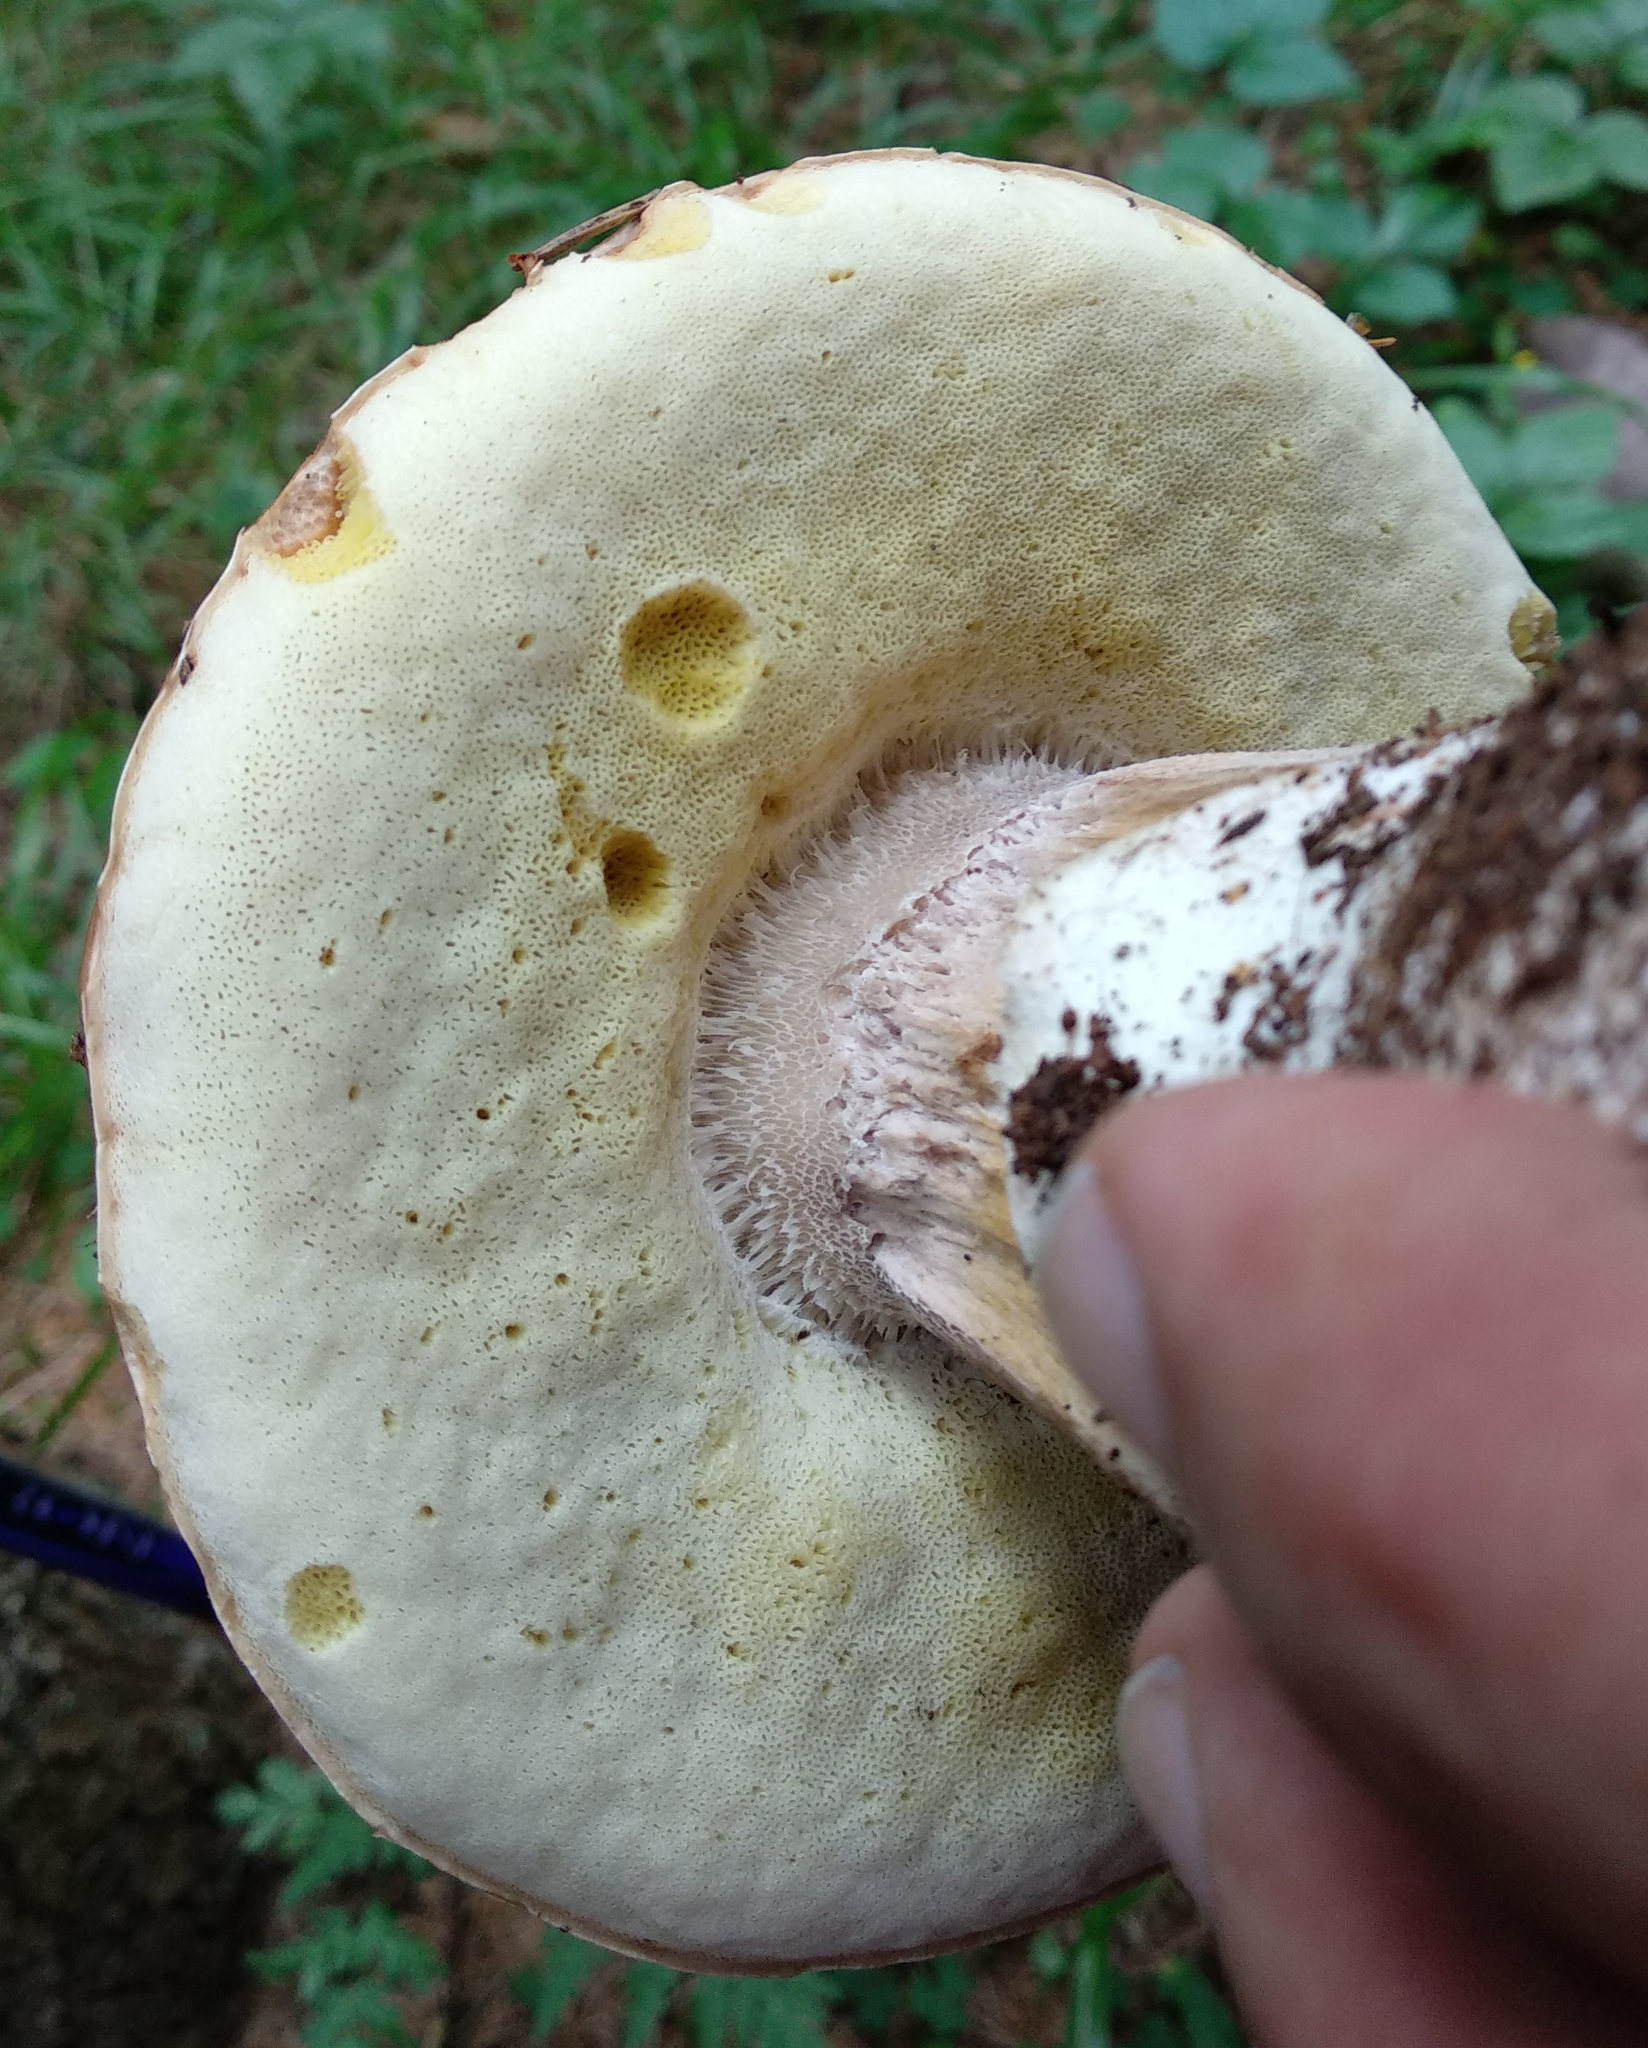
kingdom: Fungi
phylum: Basidiomycota
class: Agaricomycetes
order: Boletales
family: Boletaceae
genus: Boletus
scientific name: Boletus edulis
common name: Cep
